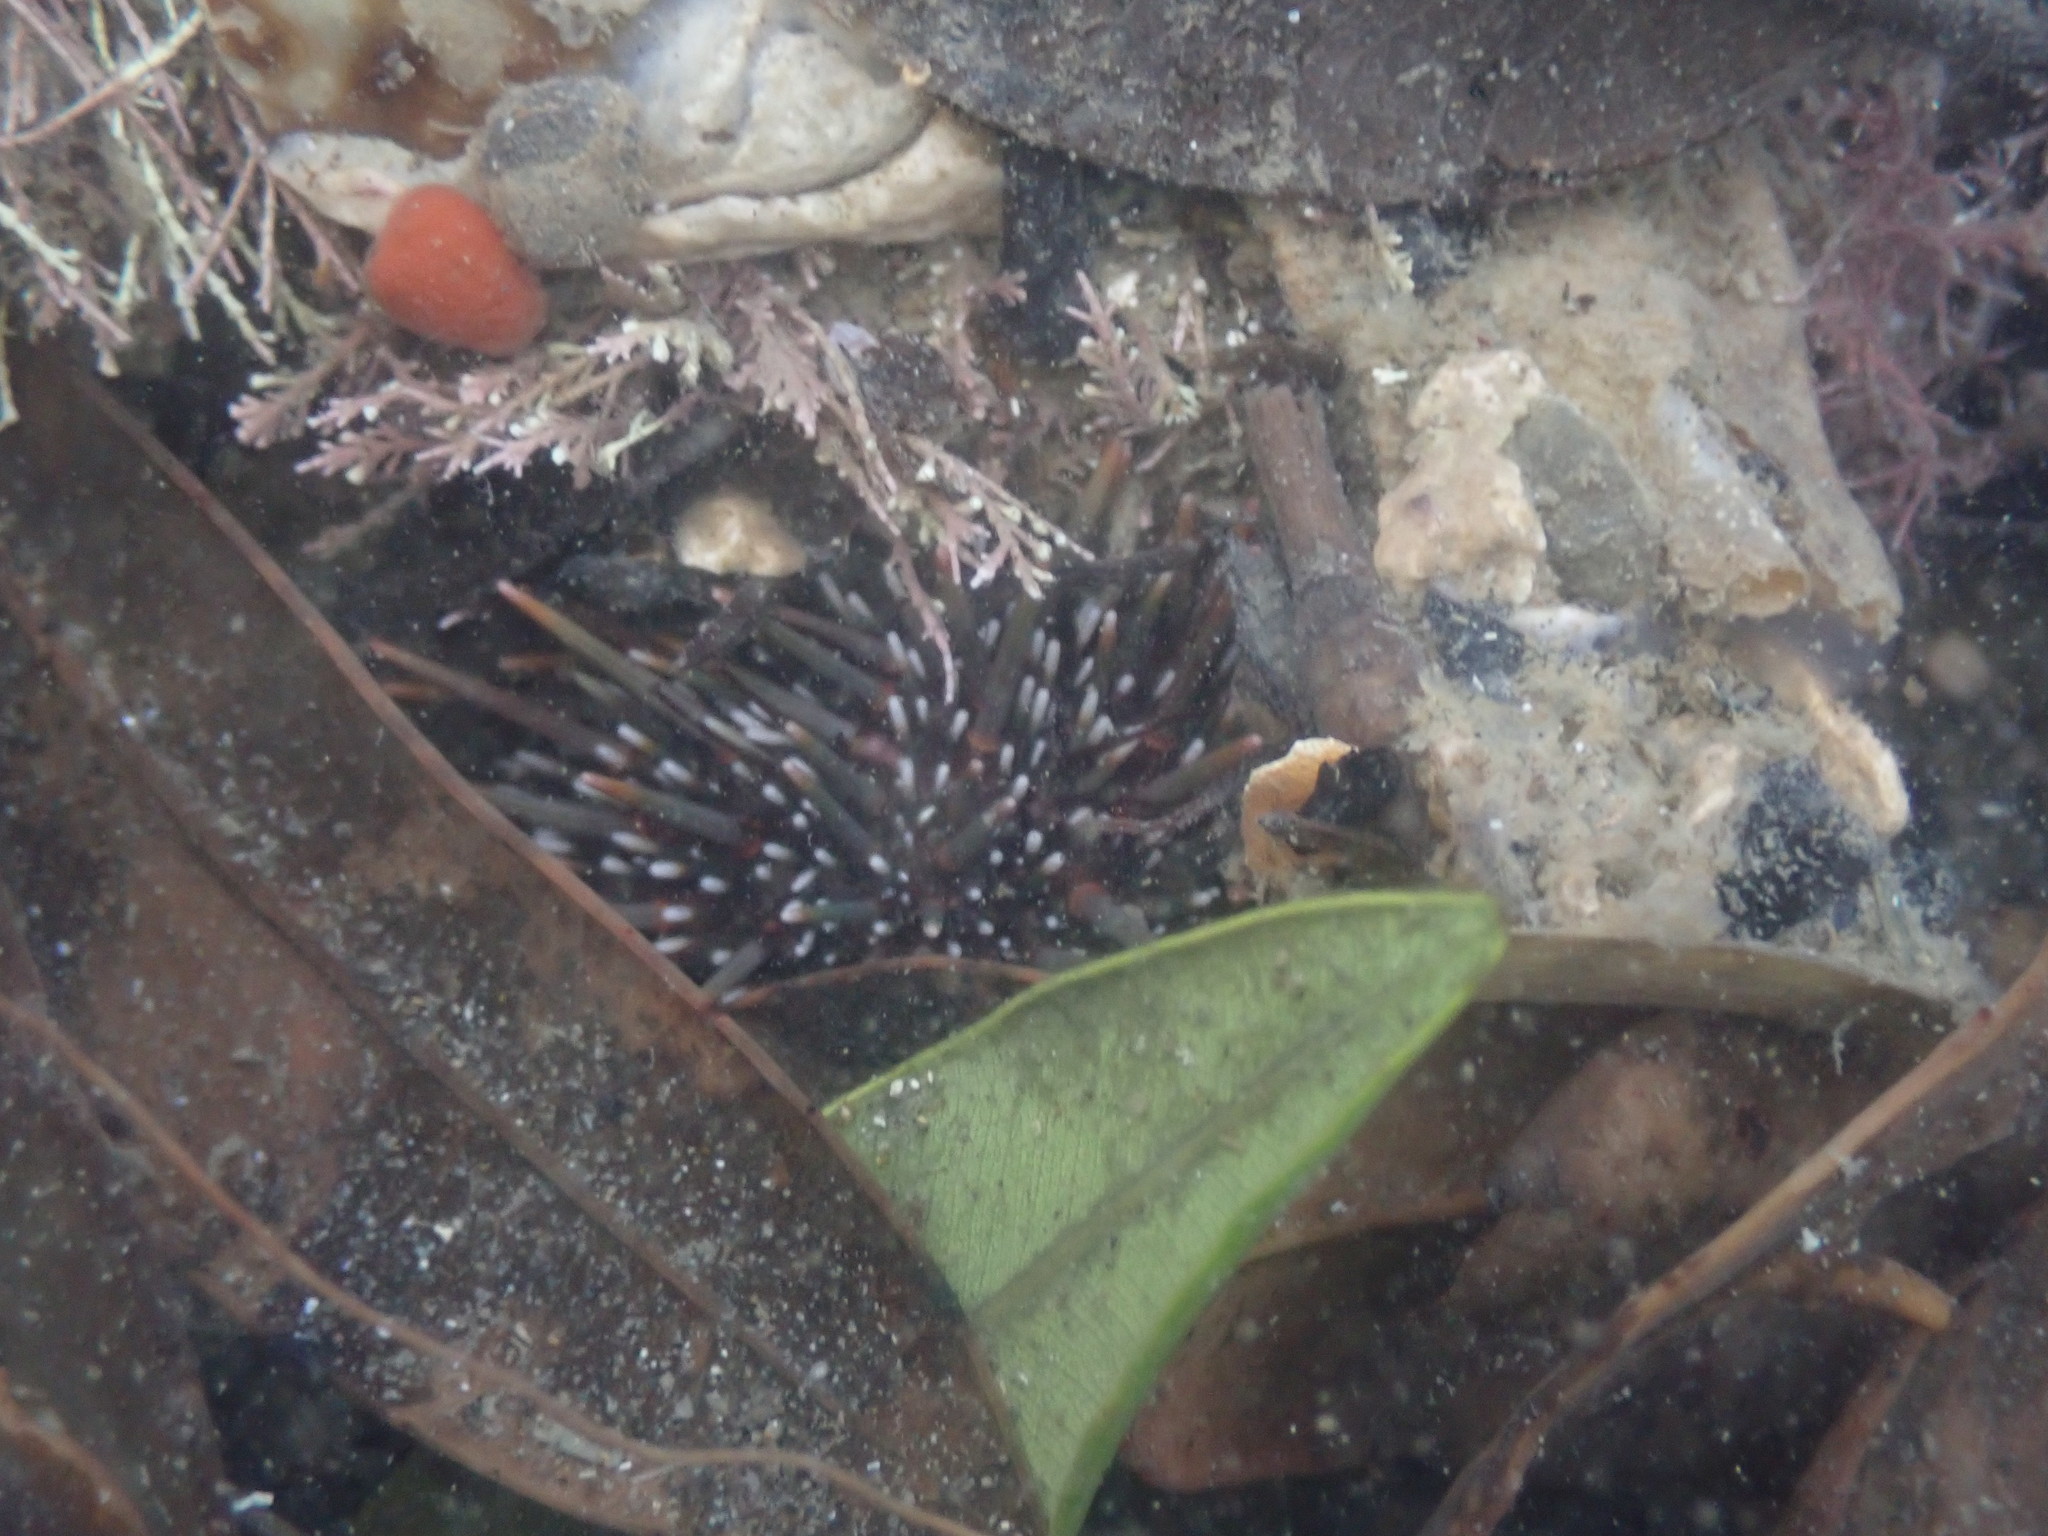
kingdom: Animalia
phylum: Echinodermata
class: Echinoidea
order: Camarodonta
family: Echinometridae
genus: Evechinus
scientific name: Evechinus chloroticus
